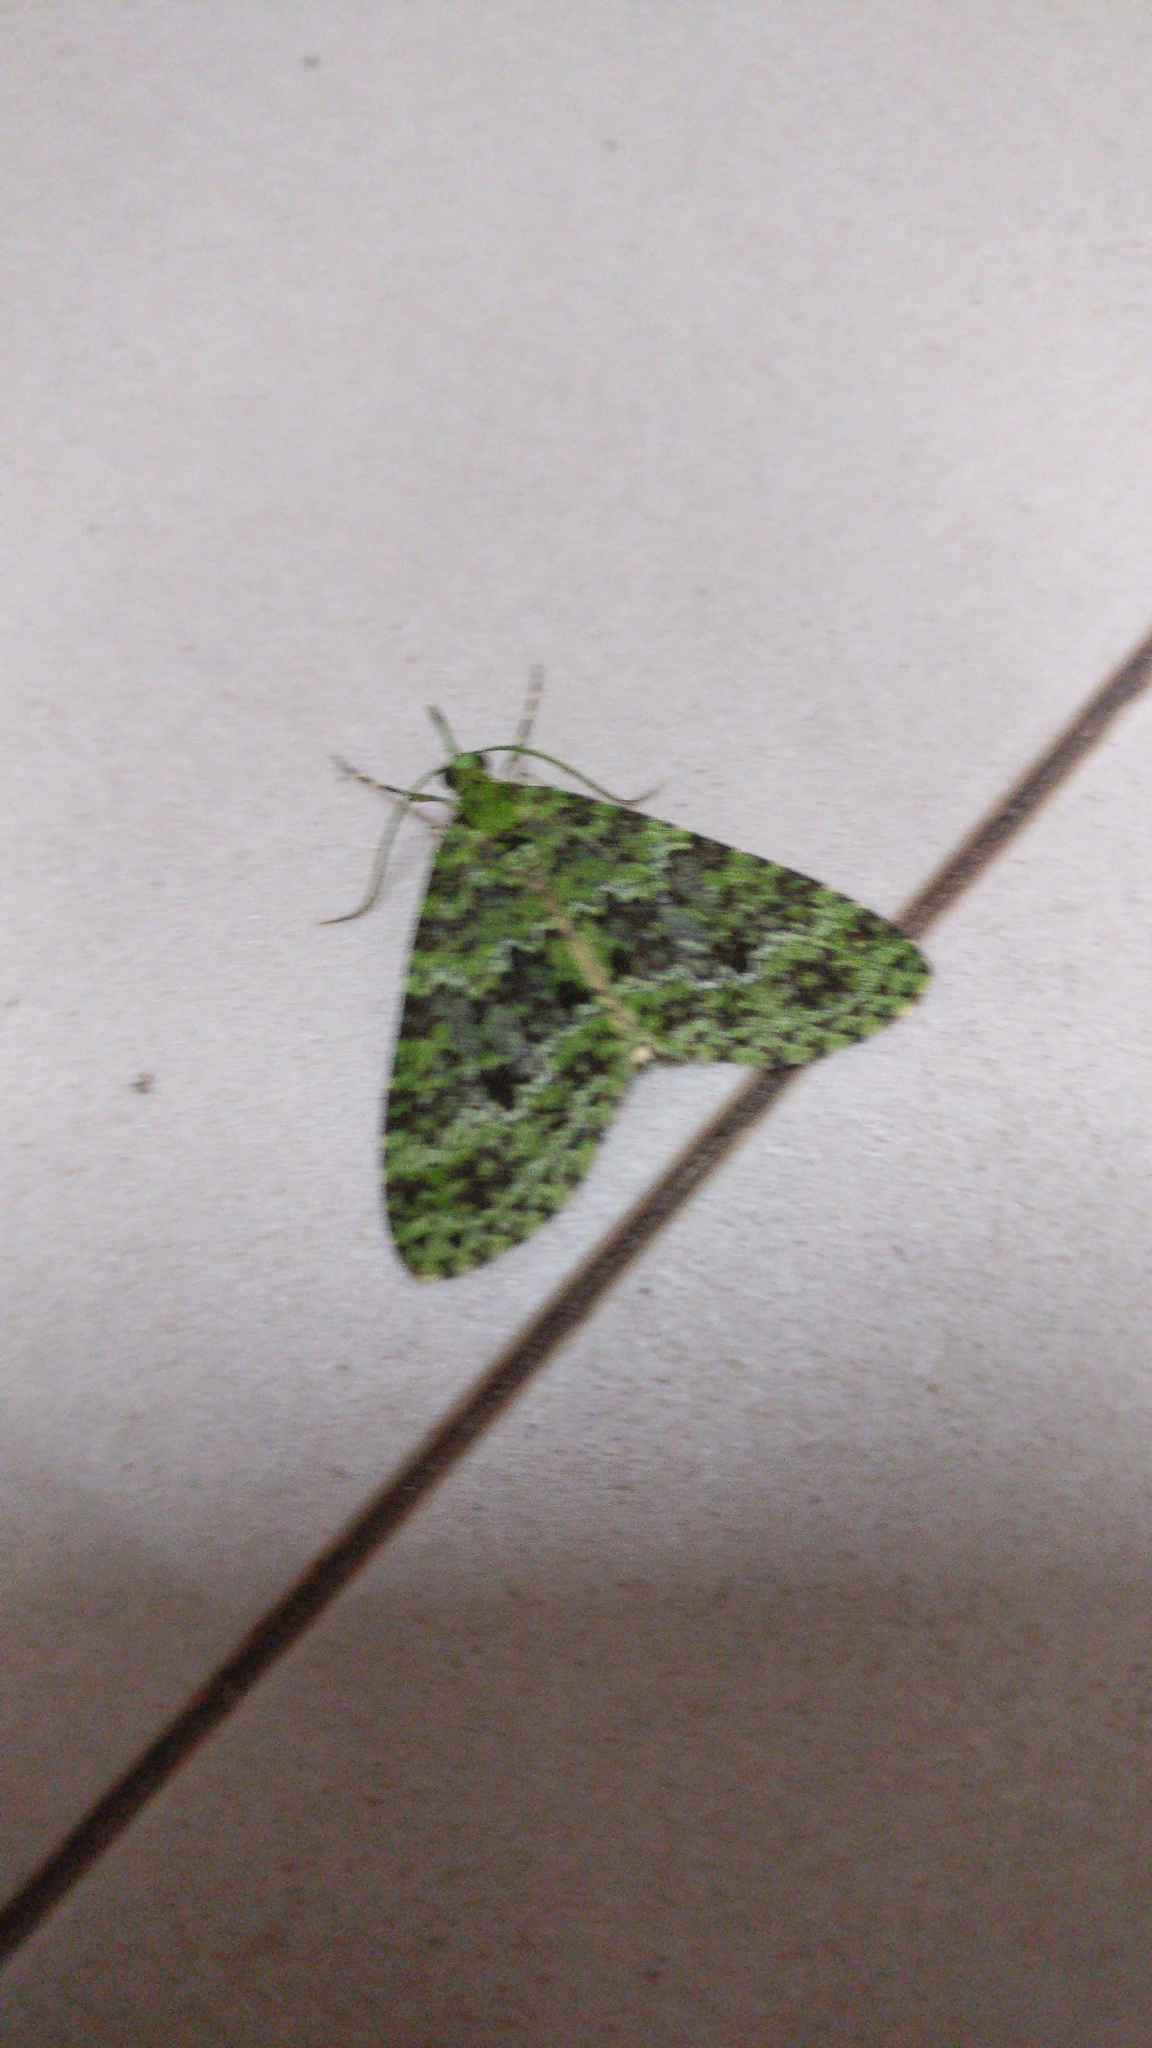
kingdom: Animalia
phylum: Arthropoda
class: Insecta
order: Lepidoptera
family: Geometridae
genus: Tristeirometa
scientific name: Tristeirometa auxostira
